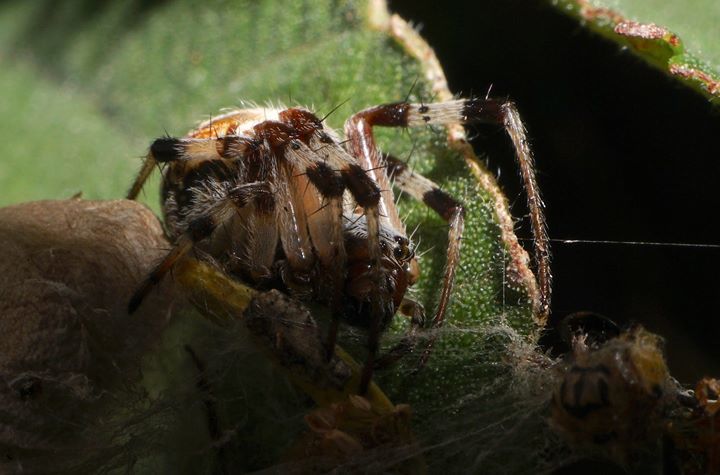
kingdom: Animalia
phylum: Arthropoda
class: Arachnida
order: Araneae
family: Araneidae
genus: Metepeira
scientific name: Metepeira labyrinthea
